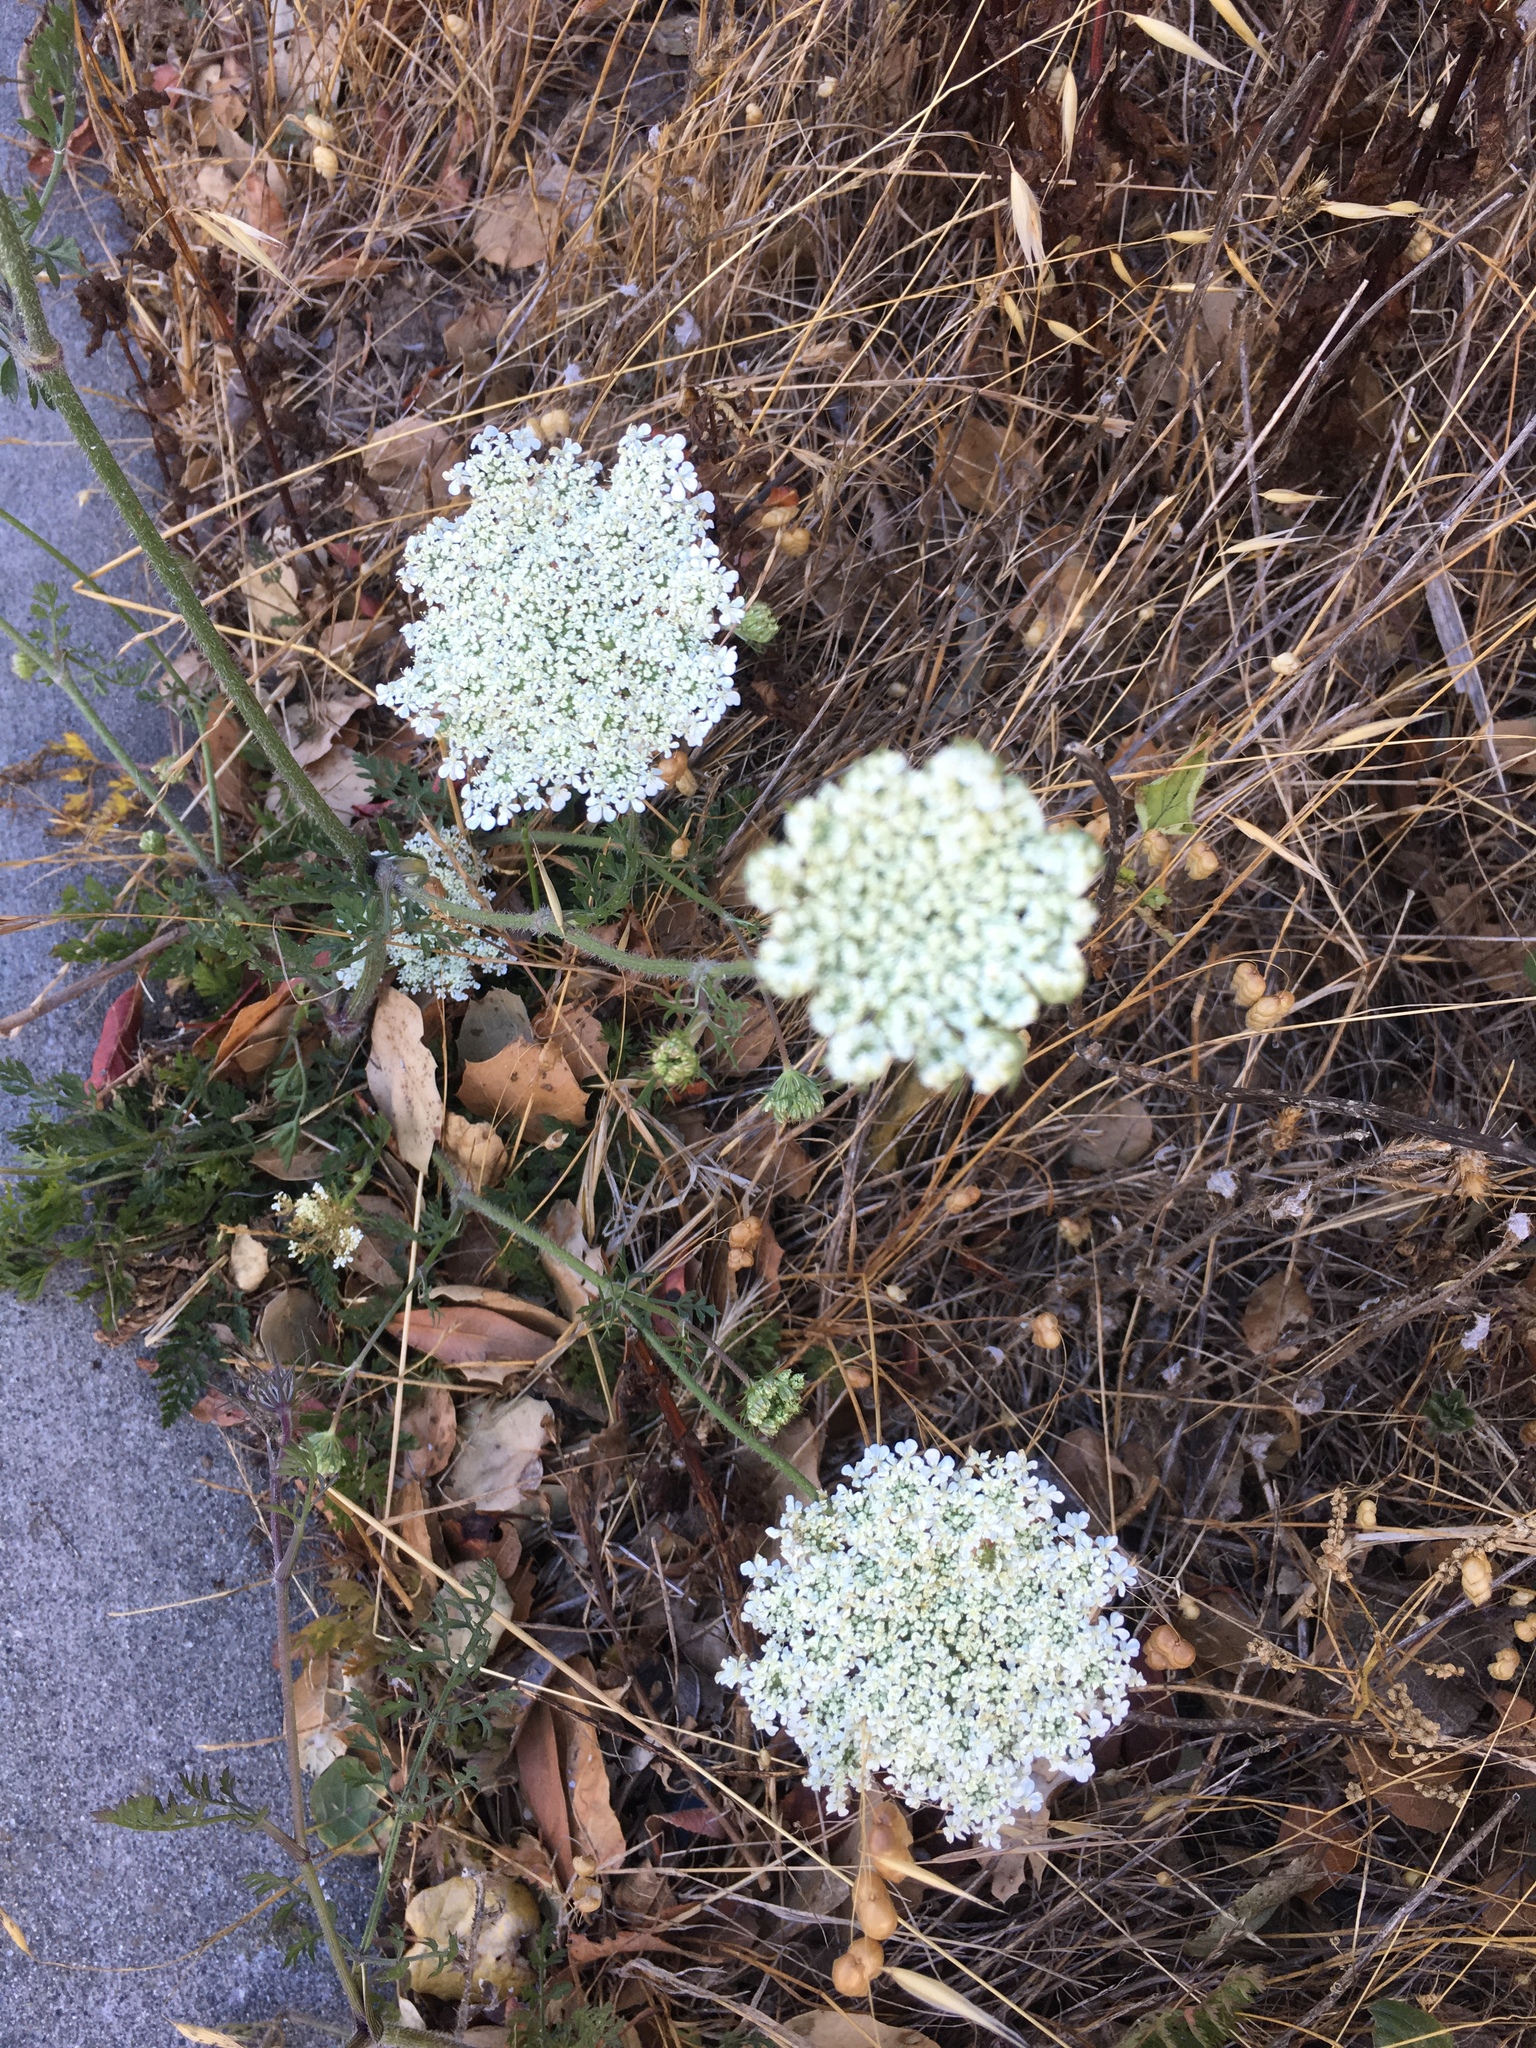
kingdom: Plantae
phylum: Tracheophyta
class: Magnoliopsida
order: Apiales
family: Apiaceae
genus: Daucus
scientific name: Daucus carota
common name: Wild carrot
